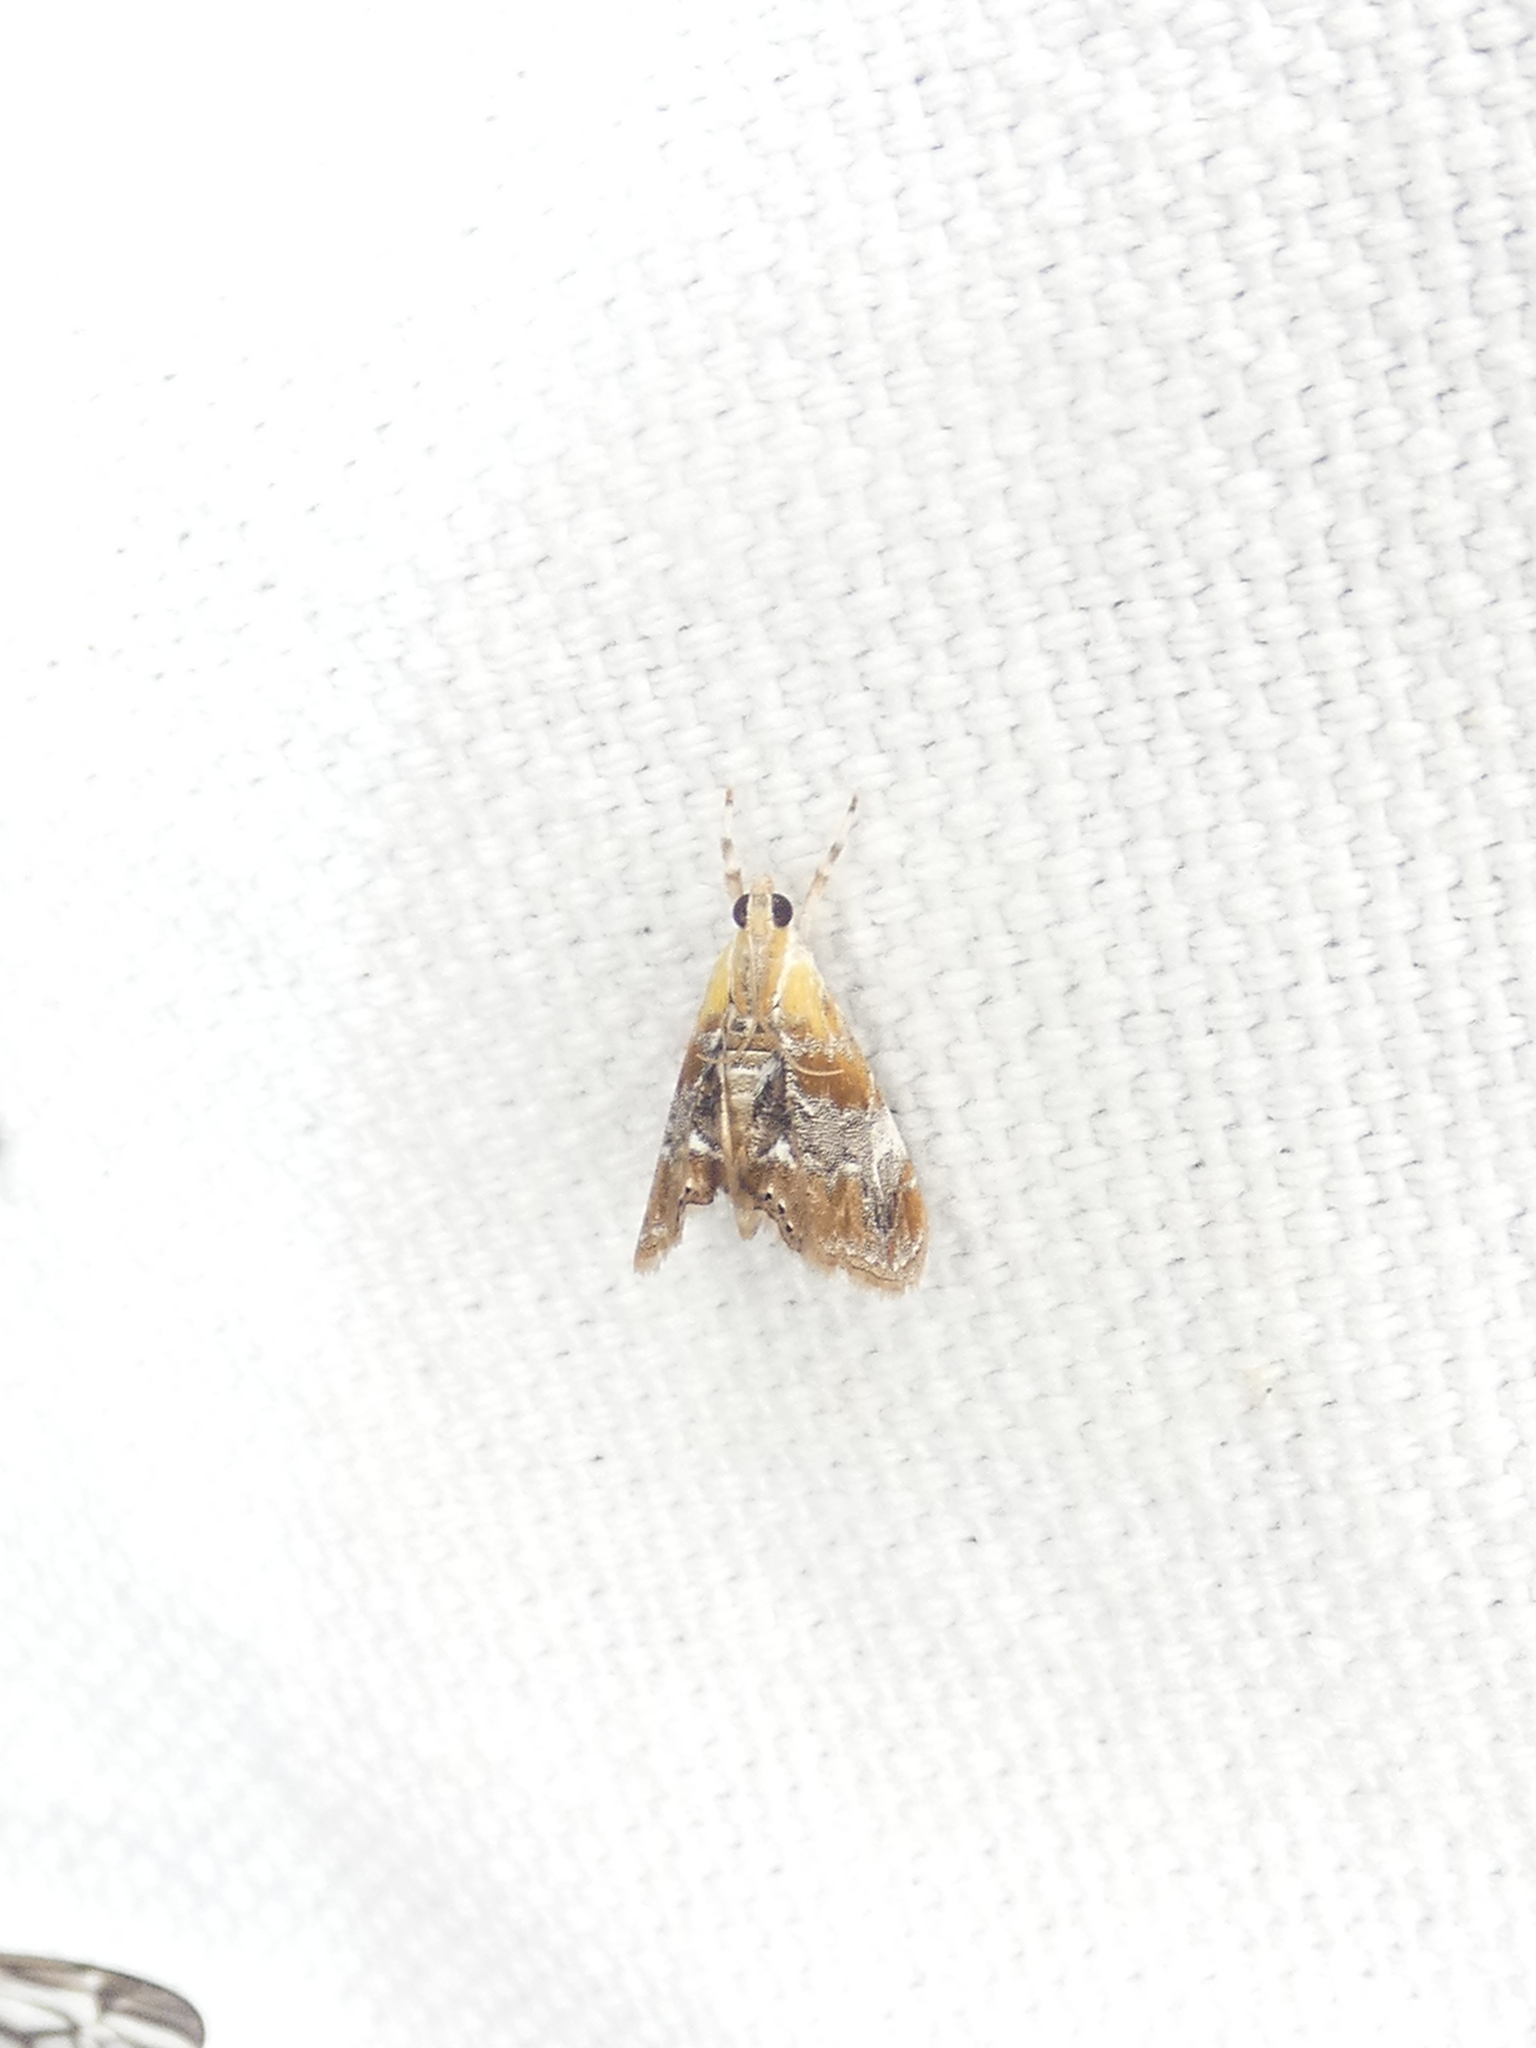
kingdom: Animalia
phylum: Arthropoda
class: Insecta
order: Lepidoptera
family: Crambidae
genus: Dicymolomia
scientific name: Dicymolomia julianalis
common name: Julia's dicymolomia moth
